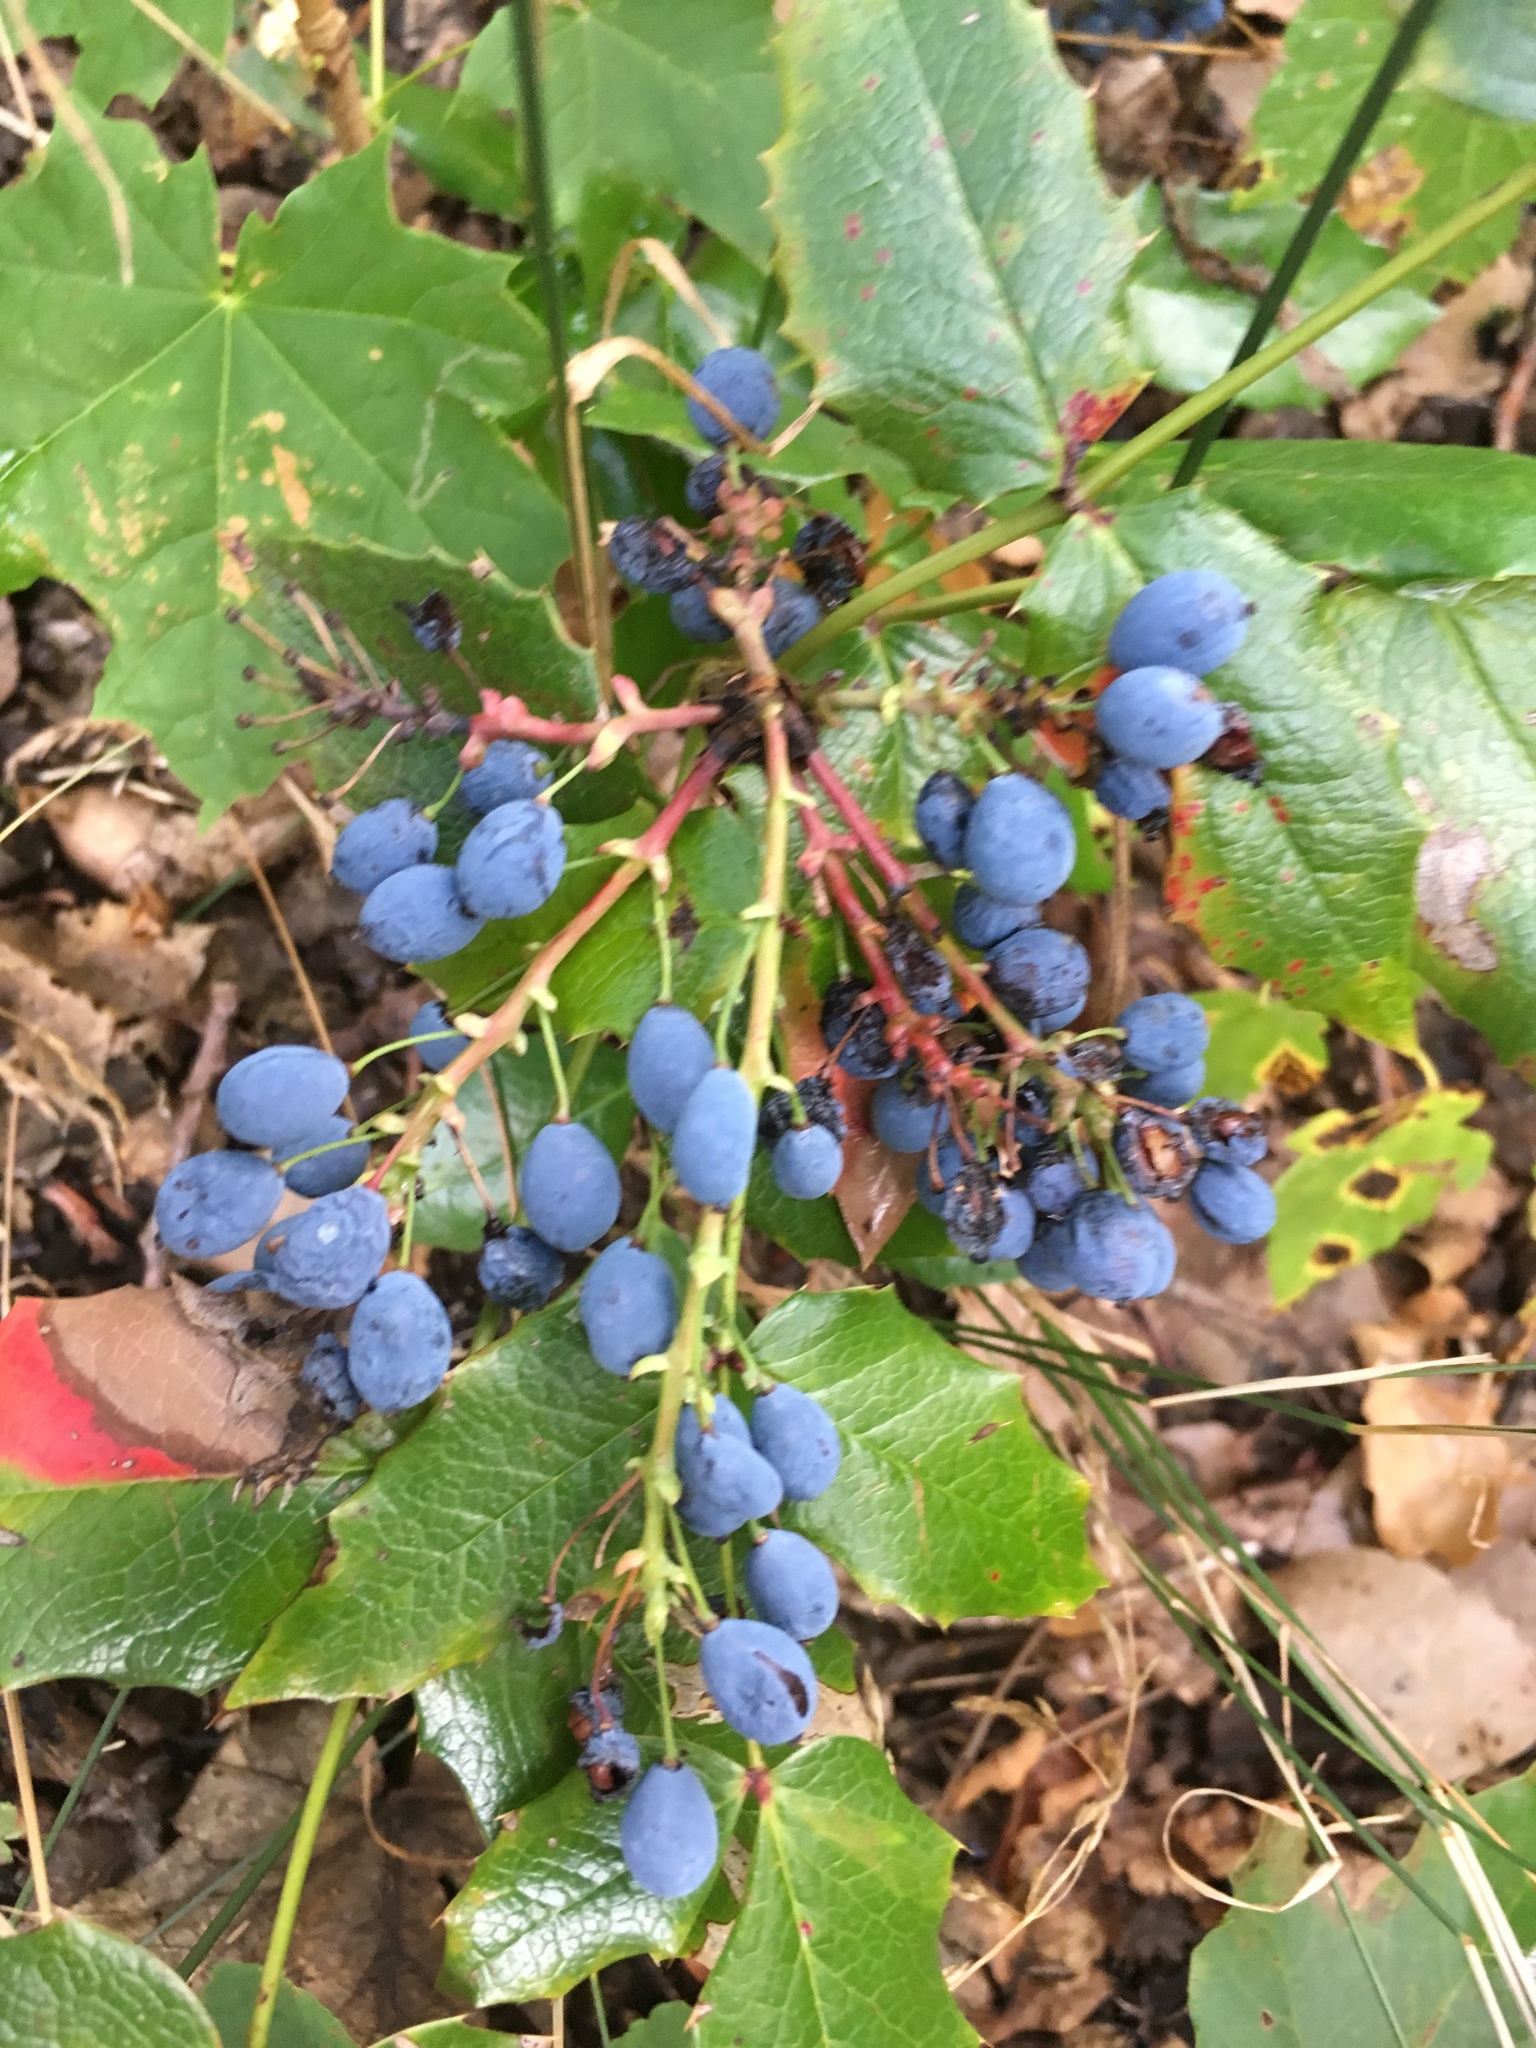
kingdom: Plantae
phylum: Tracheophyta
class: Magnoliopsida
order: Ranunculales
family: Berberidaceae
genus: Mahonia
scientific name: Mahonia aquifolium
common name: Oregon-grape
